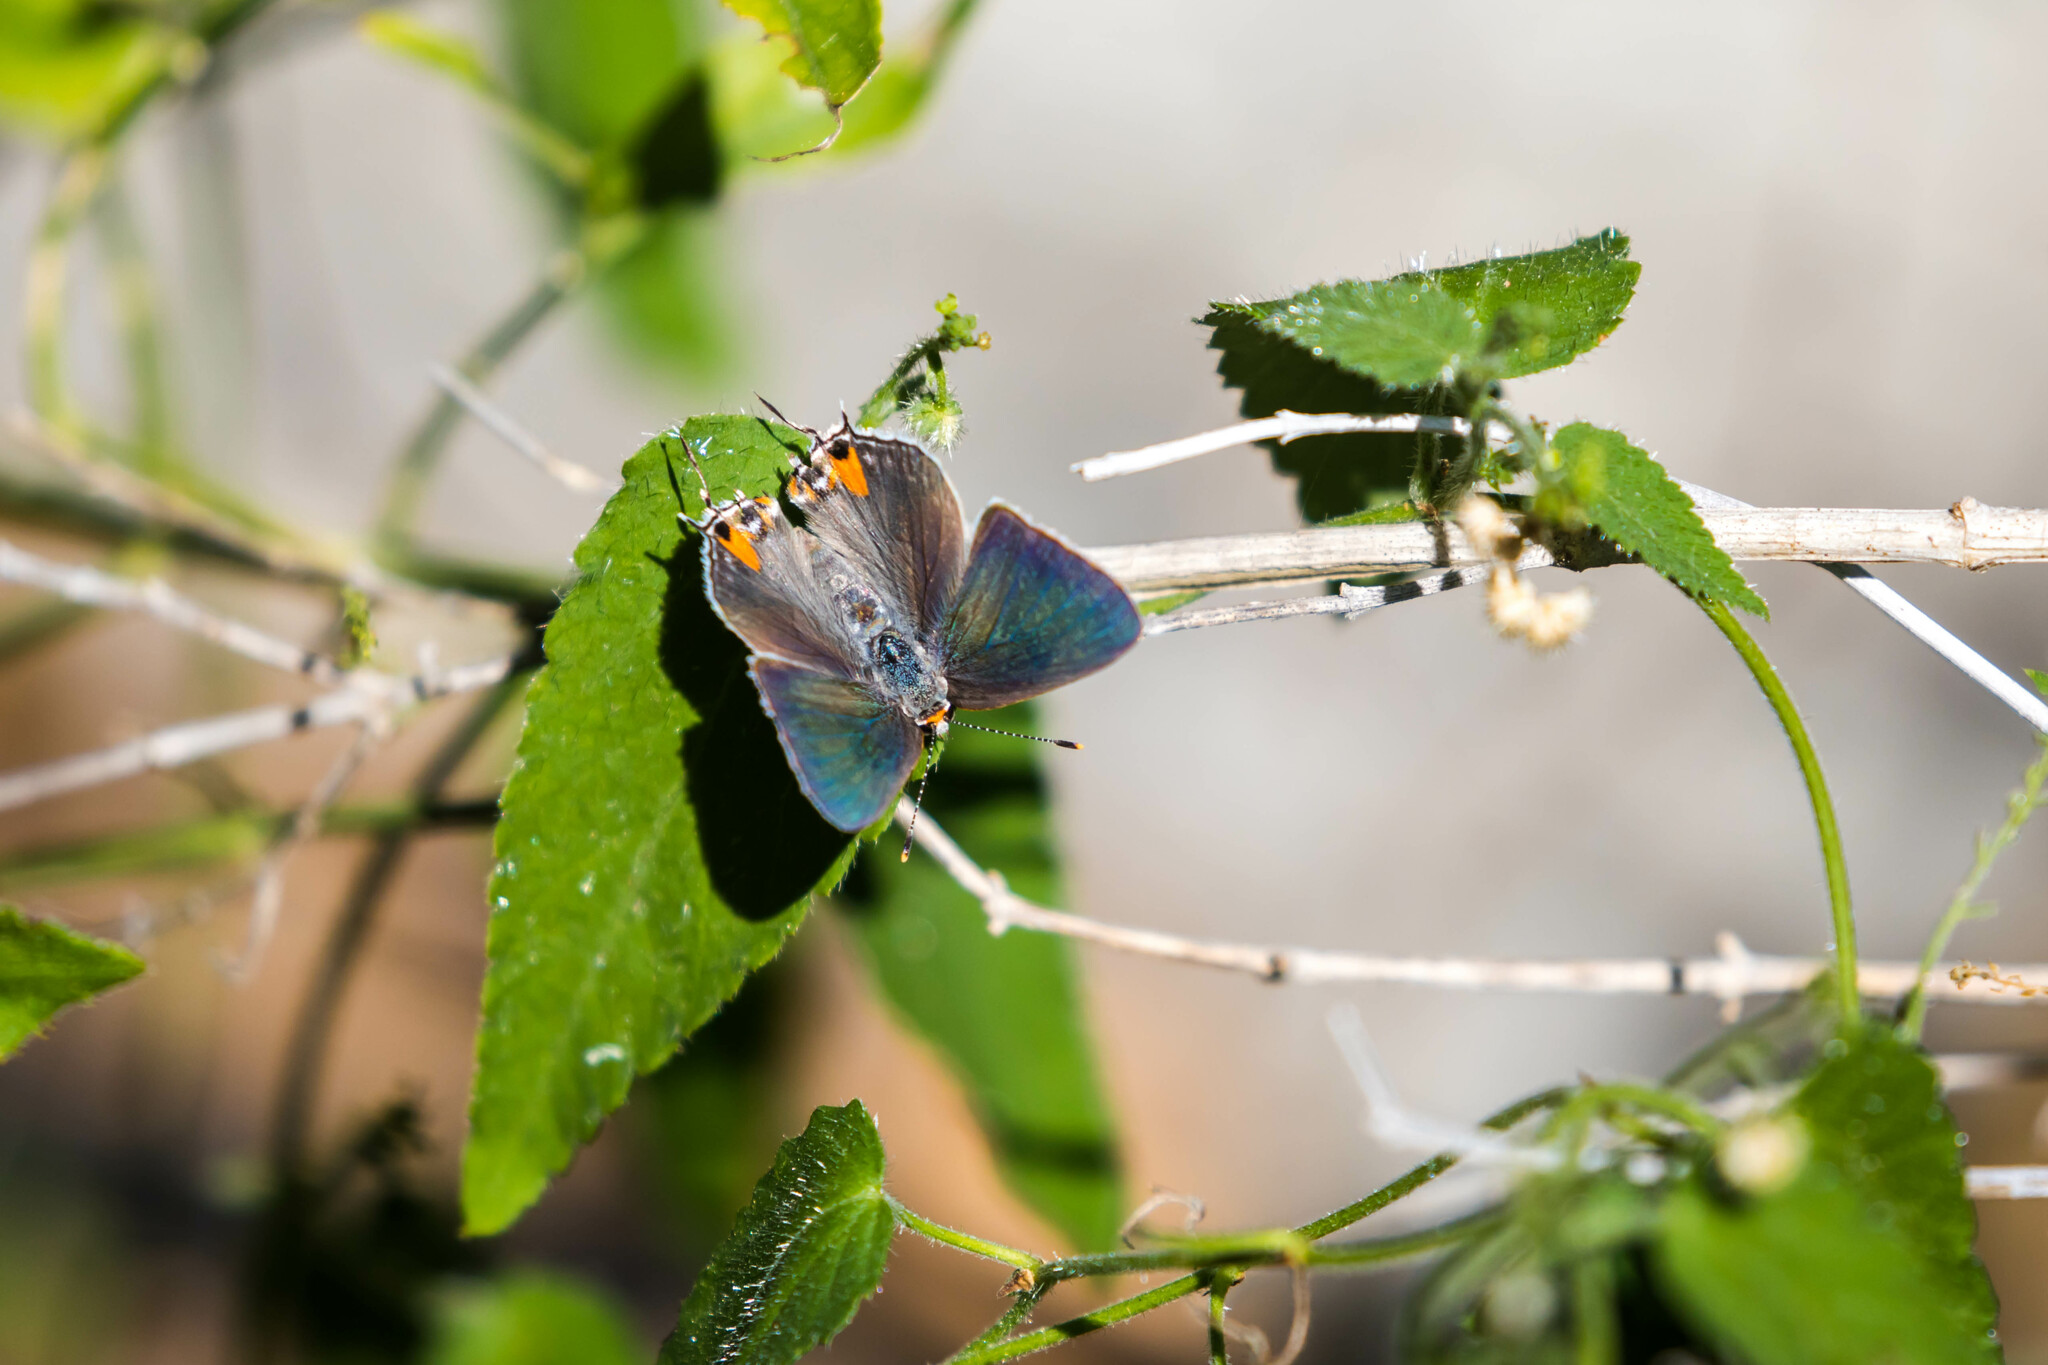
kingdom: Animalia
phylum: Arthropoda
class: Insecta
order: Lepidoptera
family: Lycaenidae
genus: Strymon
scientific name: Strymon melinus
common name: Gray hairstreak
